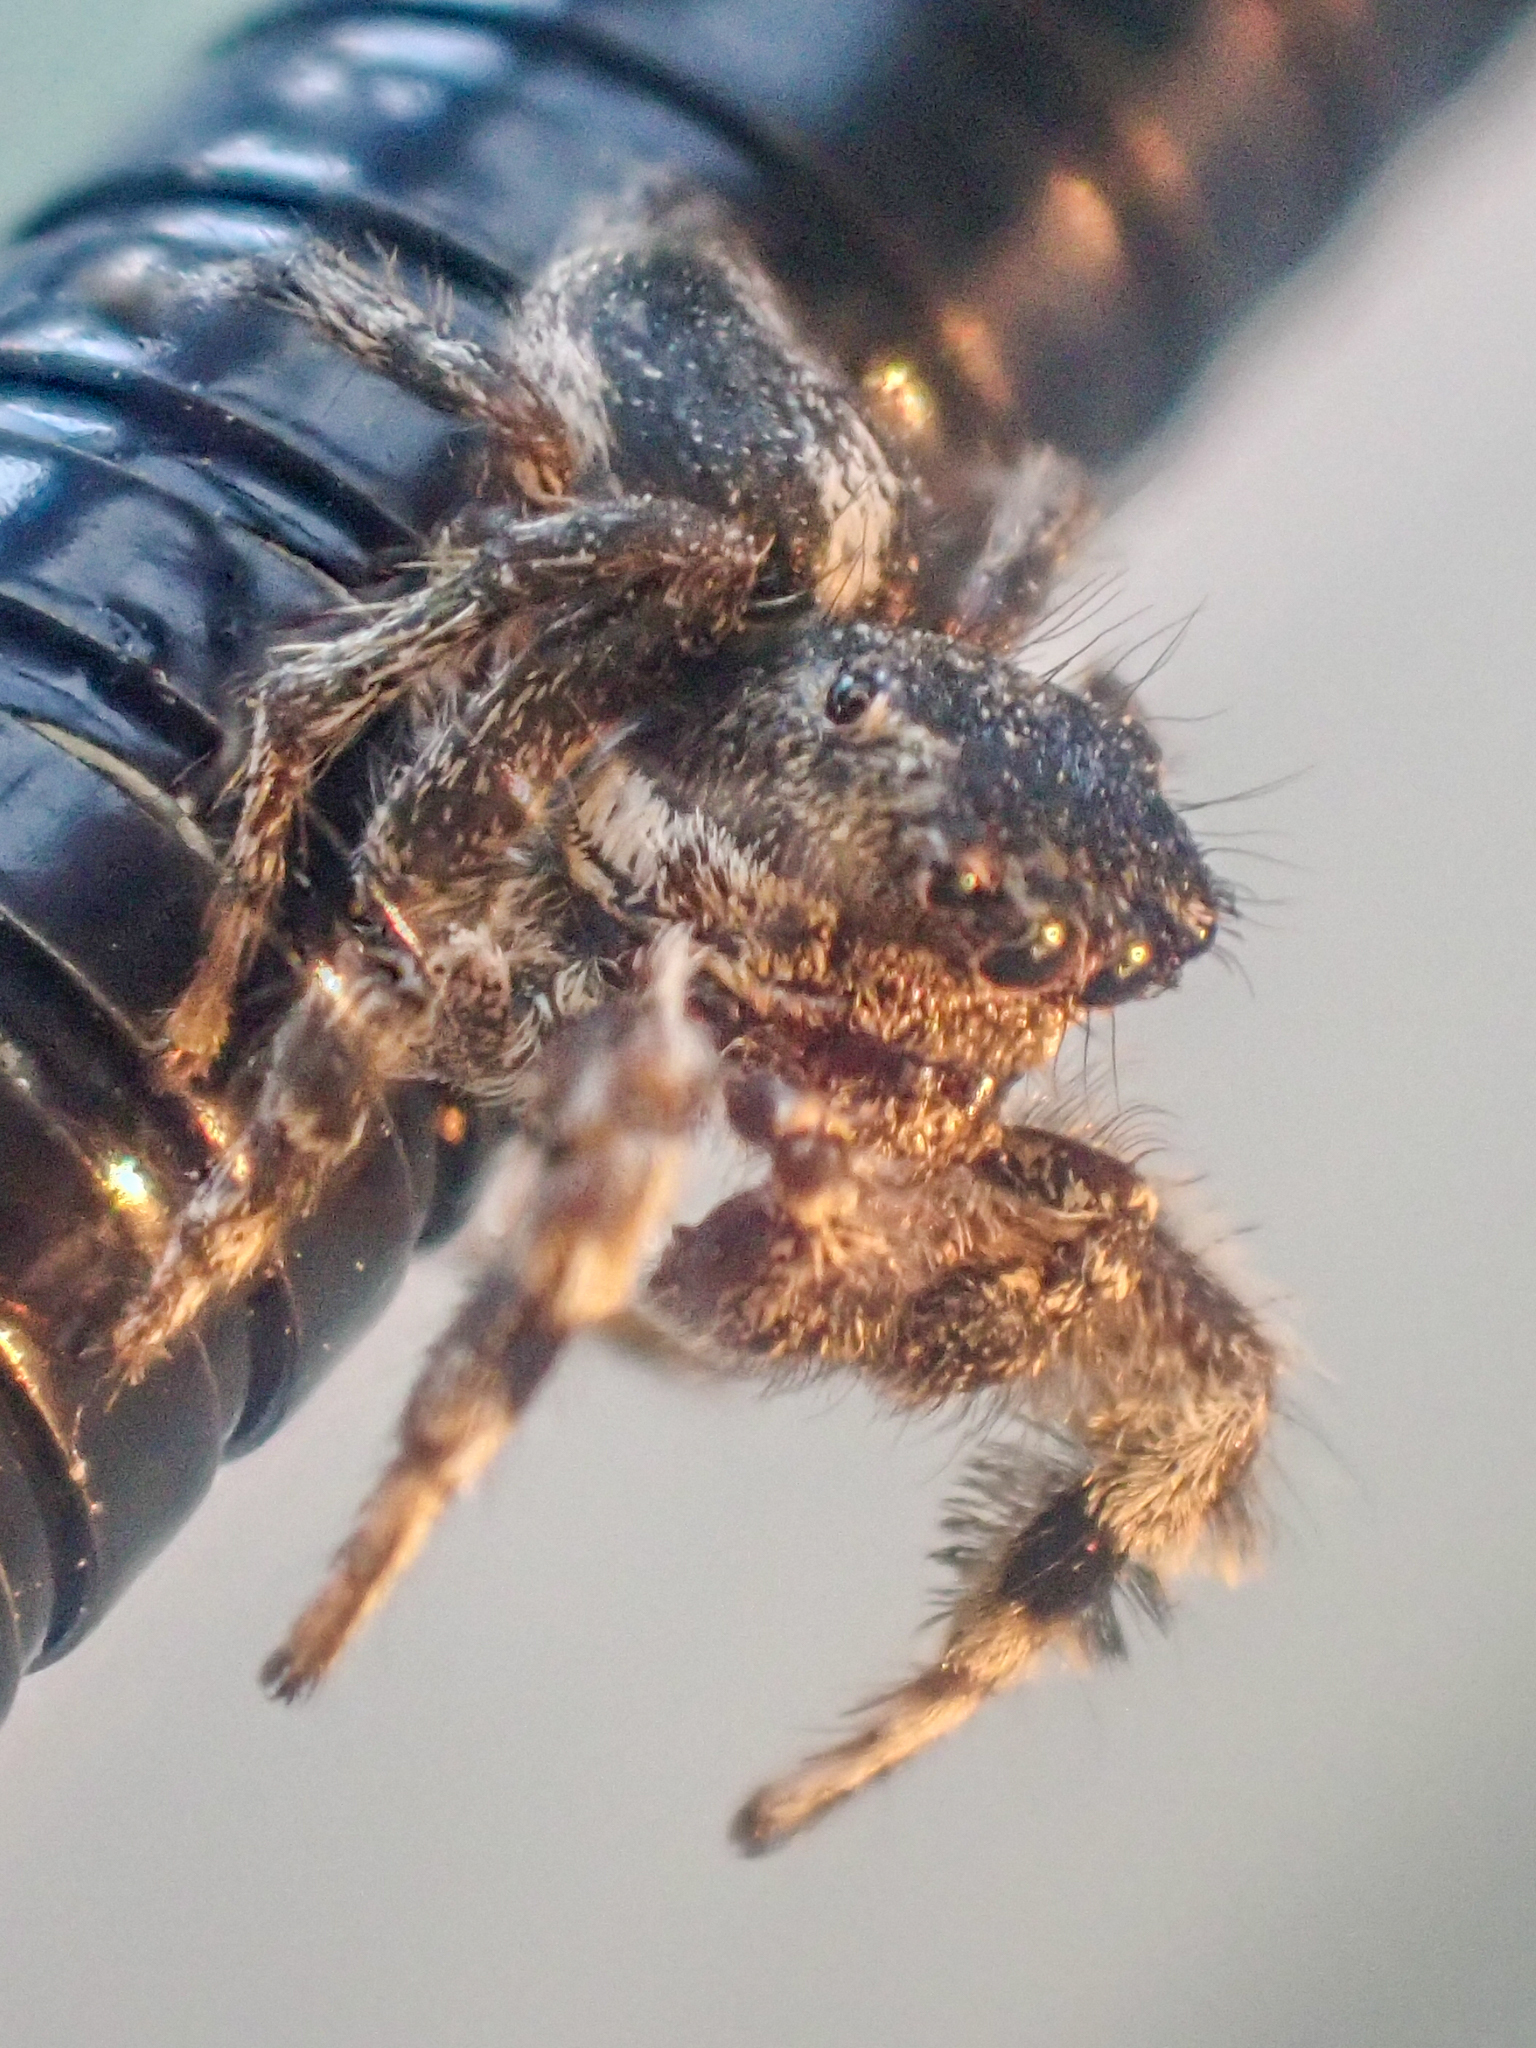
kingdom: Animalia
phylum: Arthropoda
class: Arachnida
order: Araneae
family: Salticidae
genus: Habronattus
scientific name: Habronattus elegans
